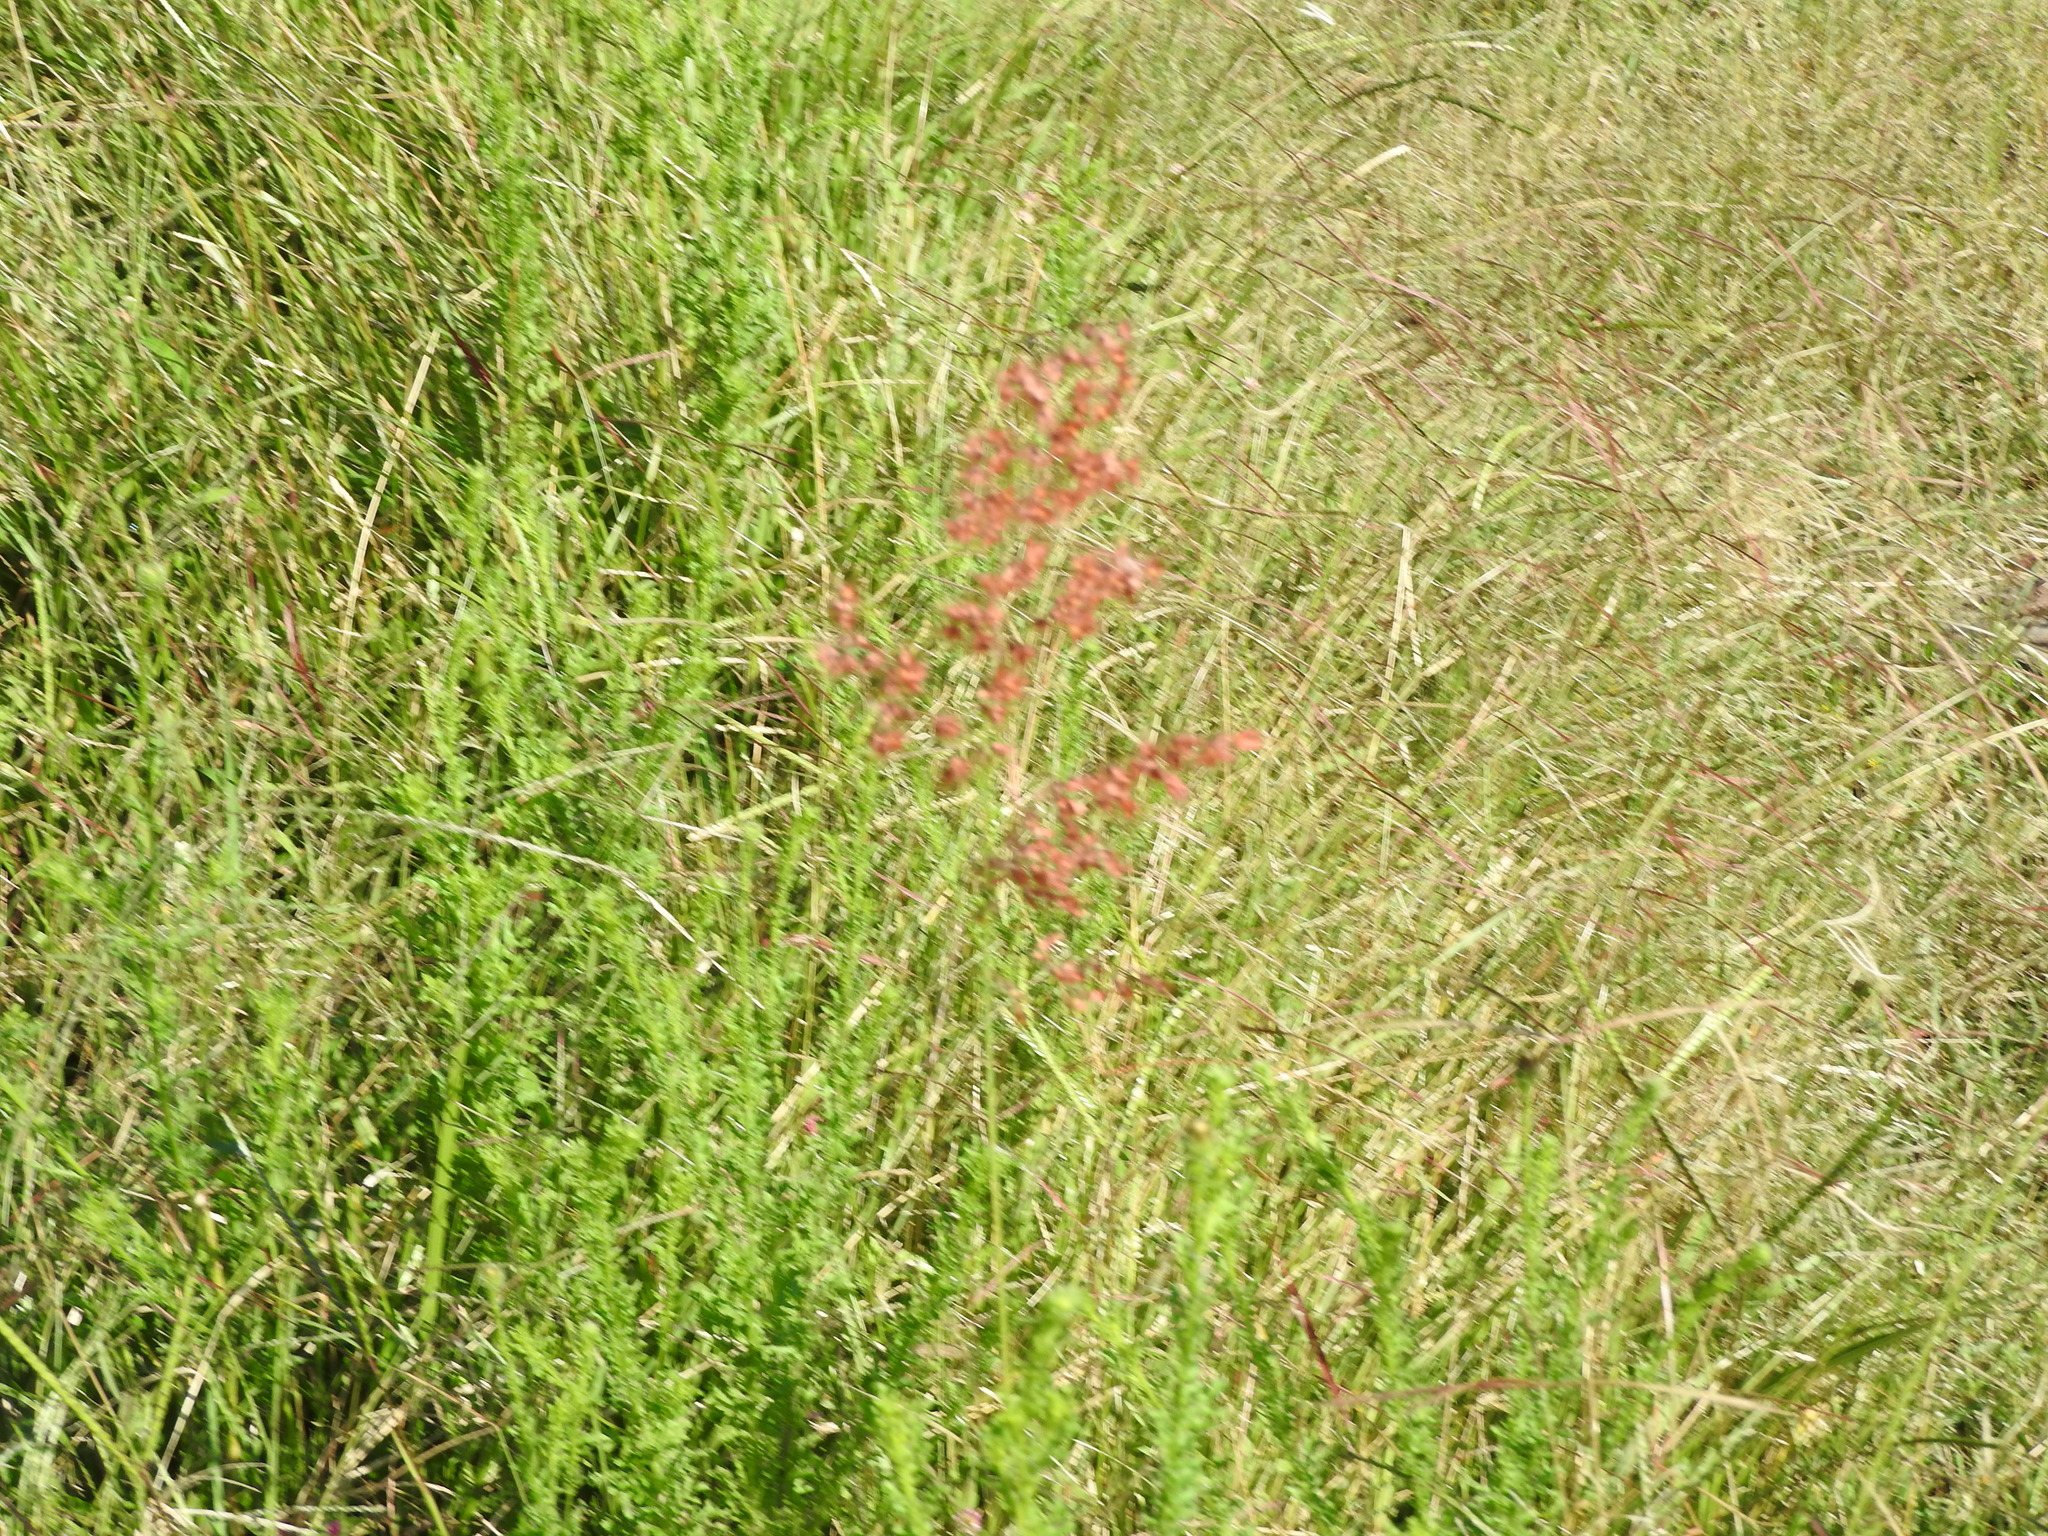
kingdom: Plantae
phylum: Tracheophyta
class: Liliopsida
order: Poales
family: Poaceae
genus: Melinis
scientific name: Melinis repens
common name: Rose natal grass
